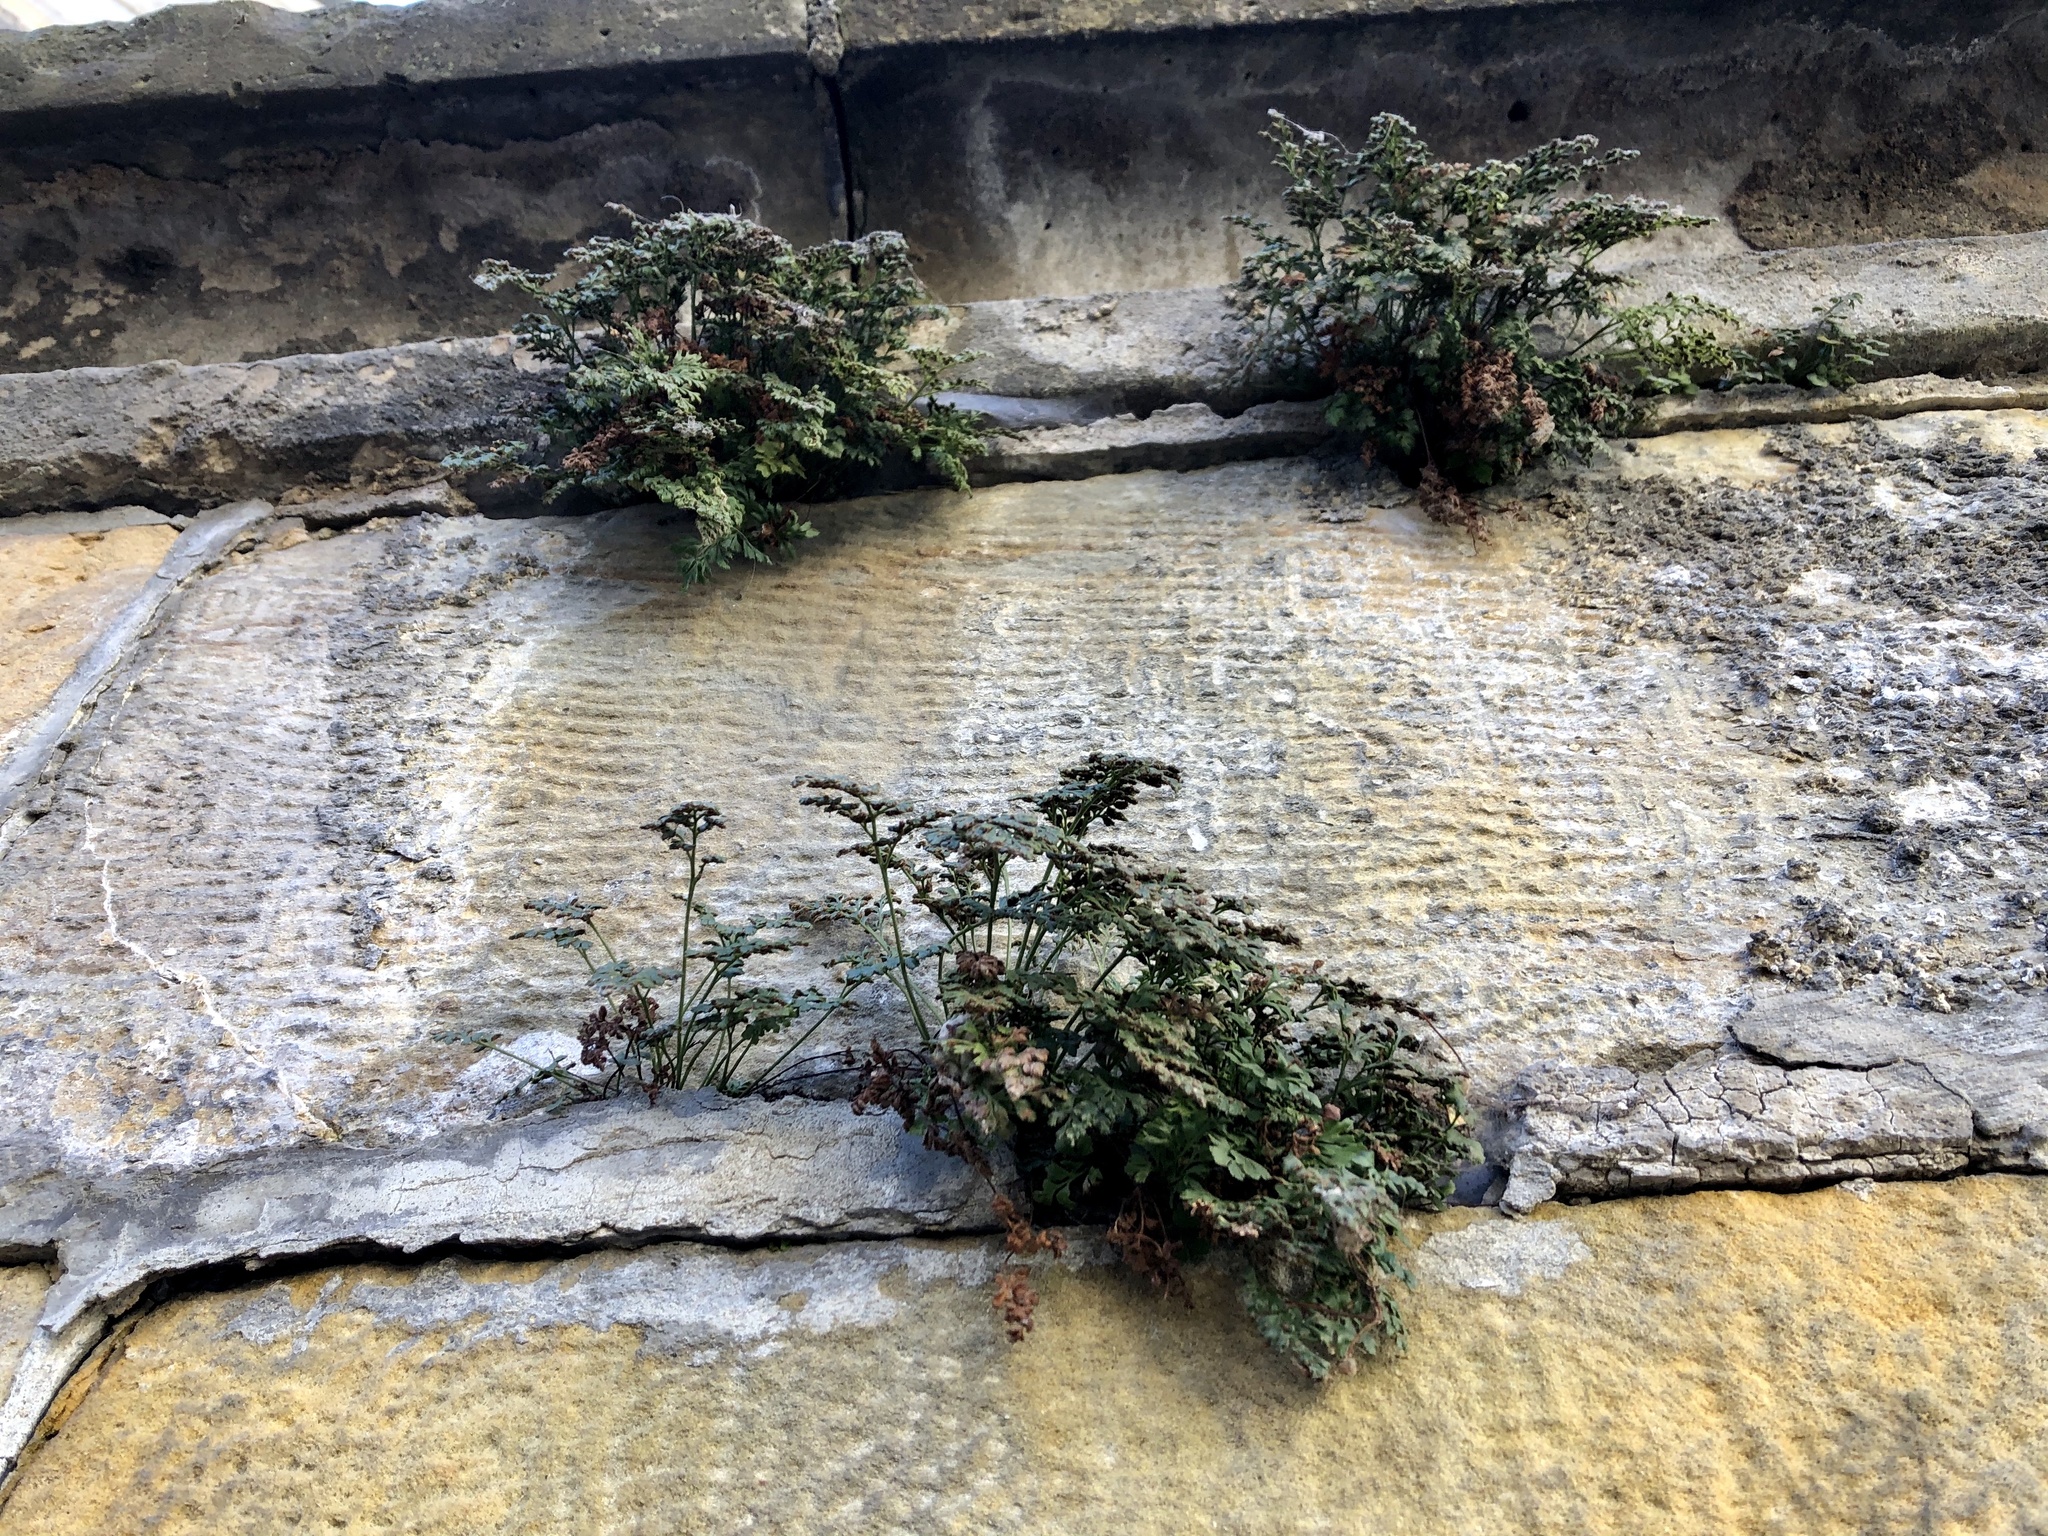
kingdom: Plantae
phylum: Tracheophyta
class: Polypodiopsida
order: Polypodiales
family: Aspleniaceae
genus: Asplenium
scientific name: Asplenium ruta-muraria
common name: Wall-rue
